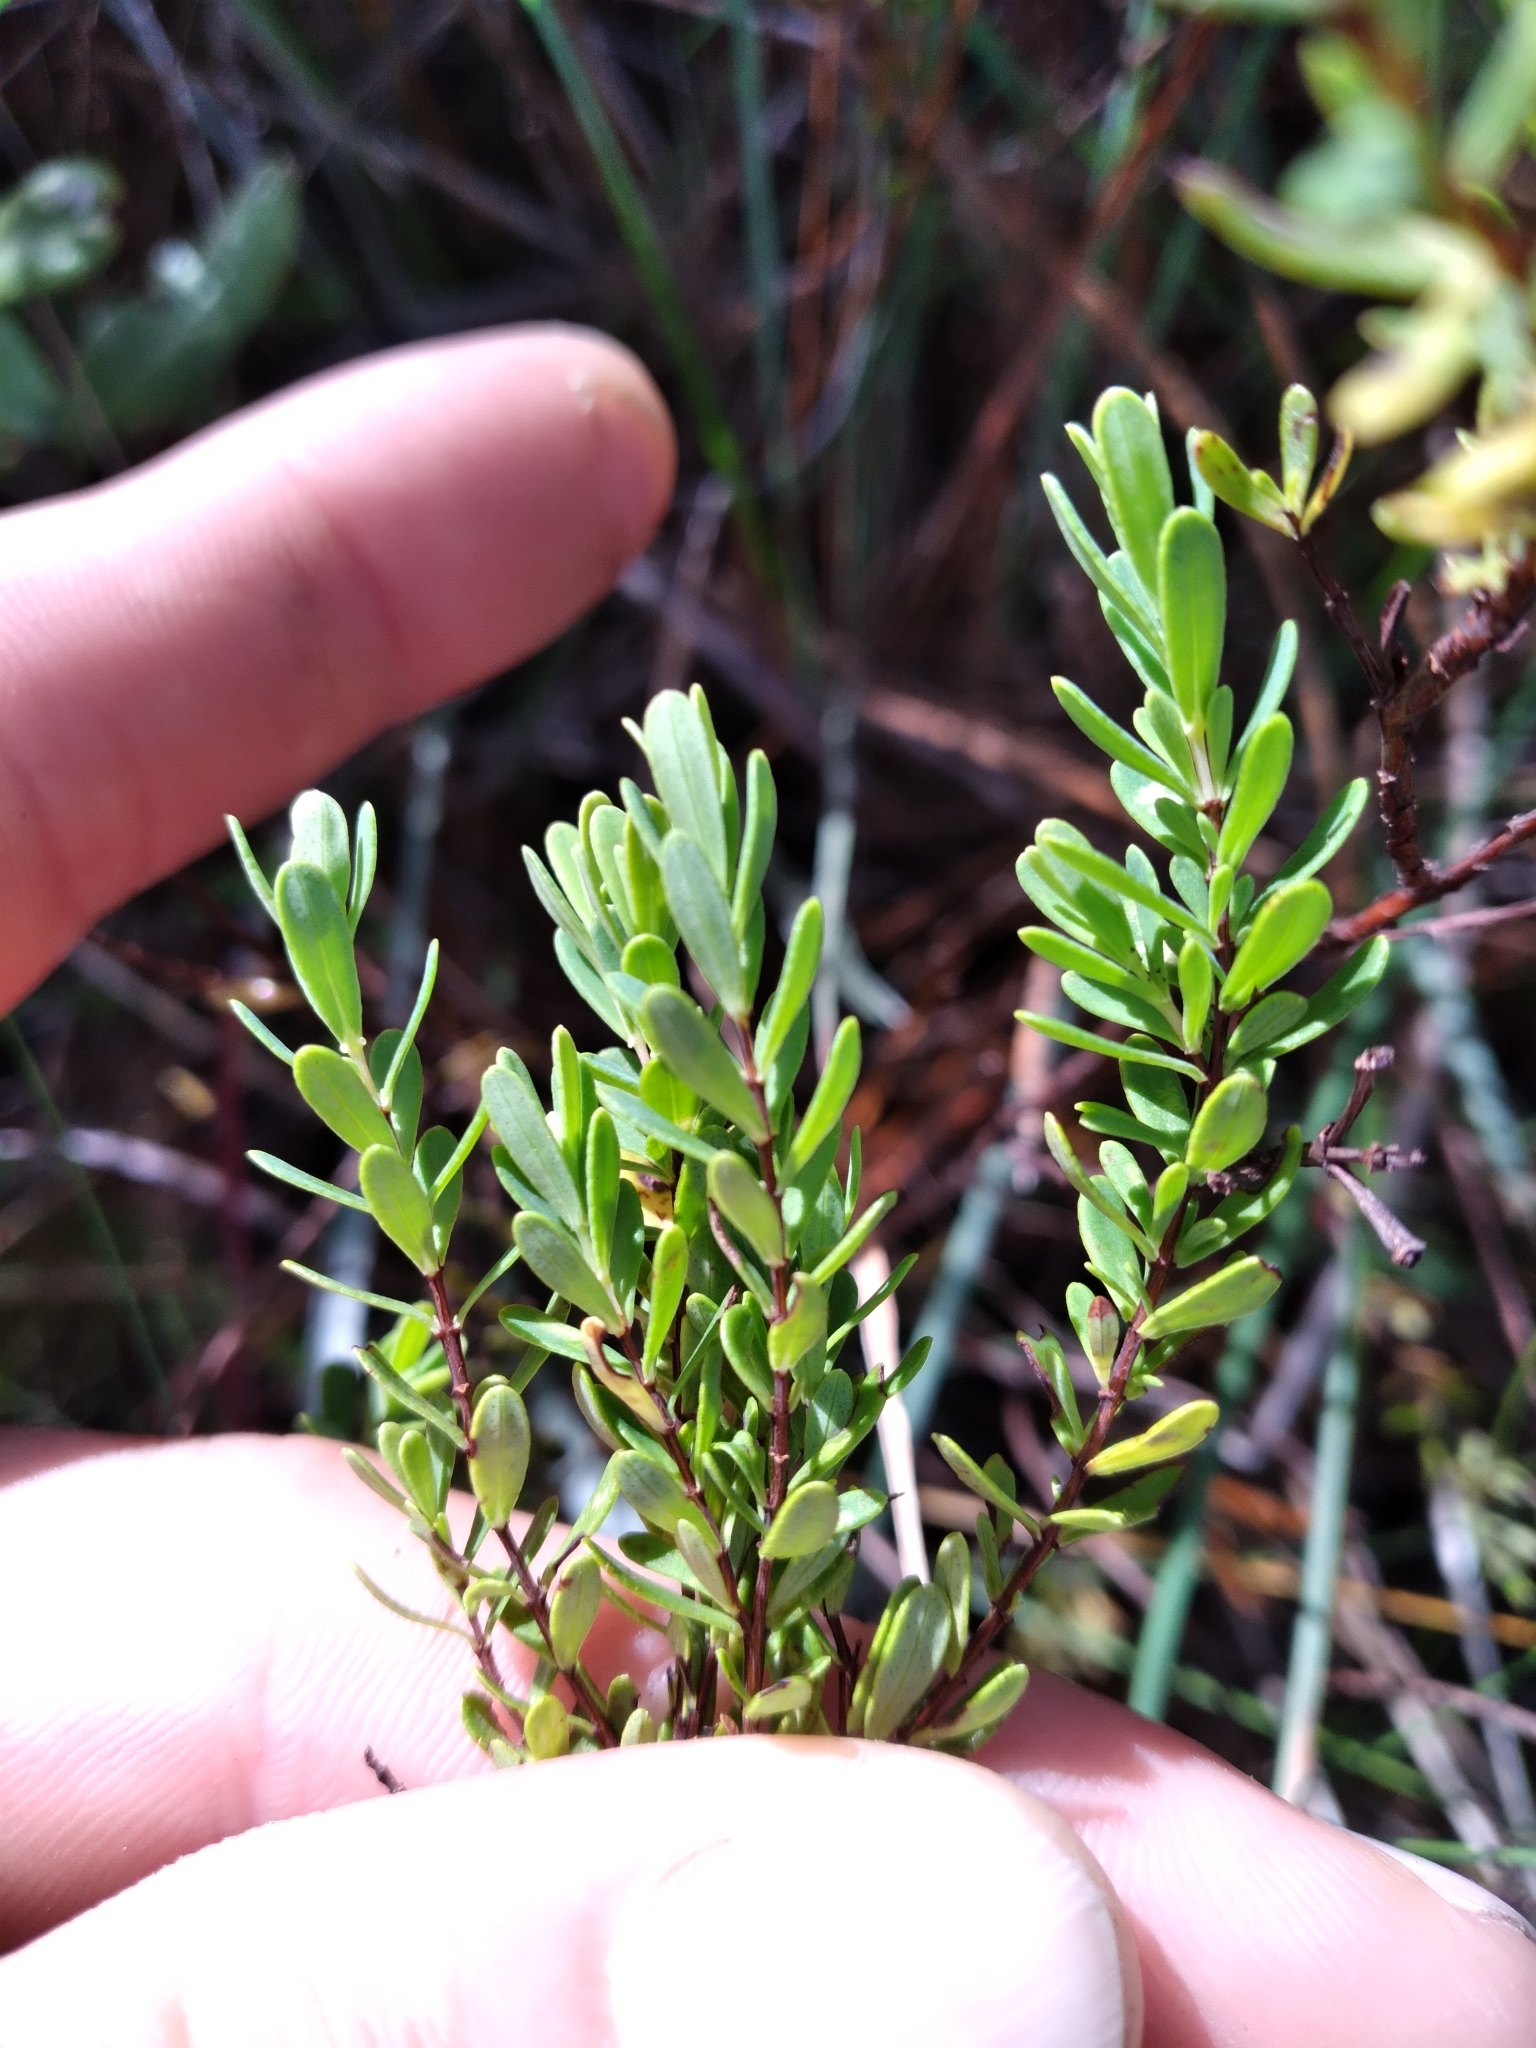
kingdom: Plantae
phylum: Tracheophyta
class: Magnoliopsida
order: Malpighiales
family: Hypericaceae
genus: Hypericum
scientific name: Hypericum microsepalum
